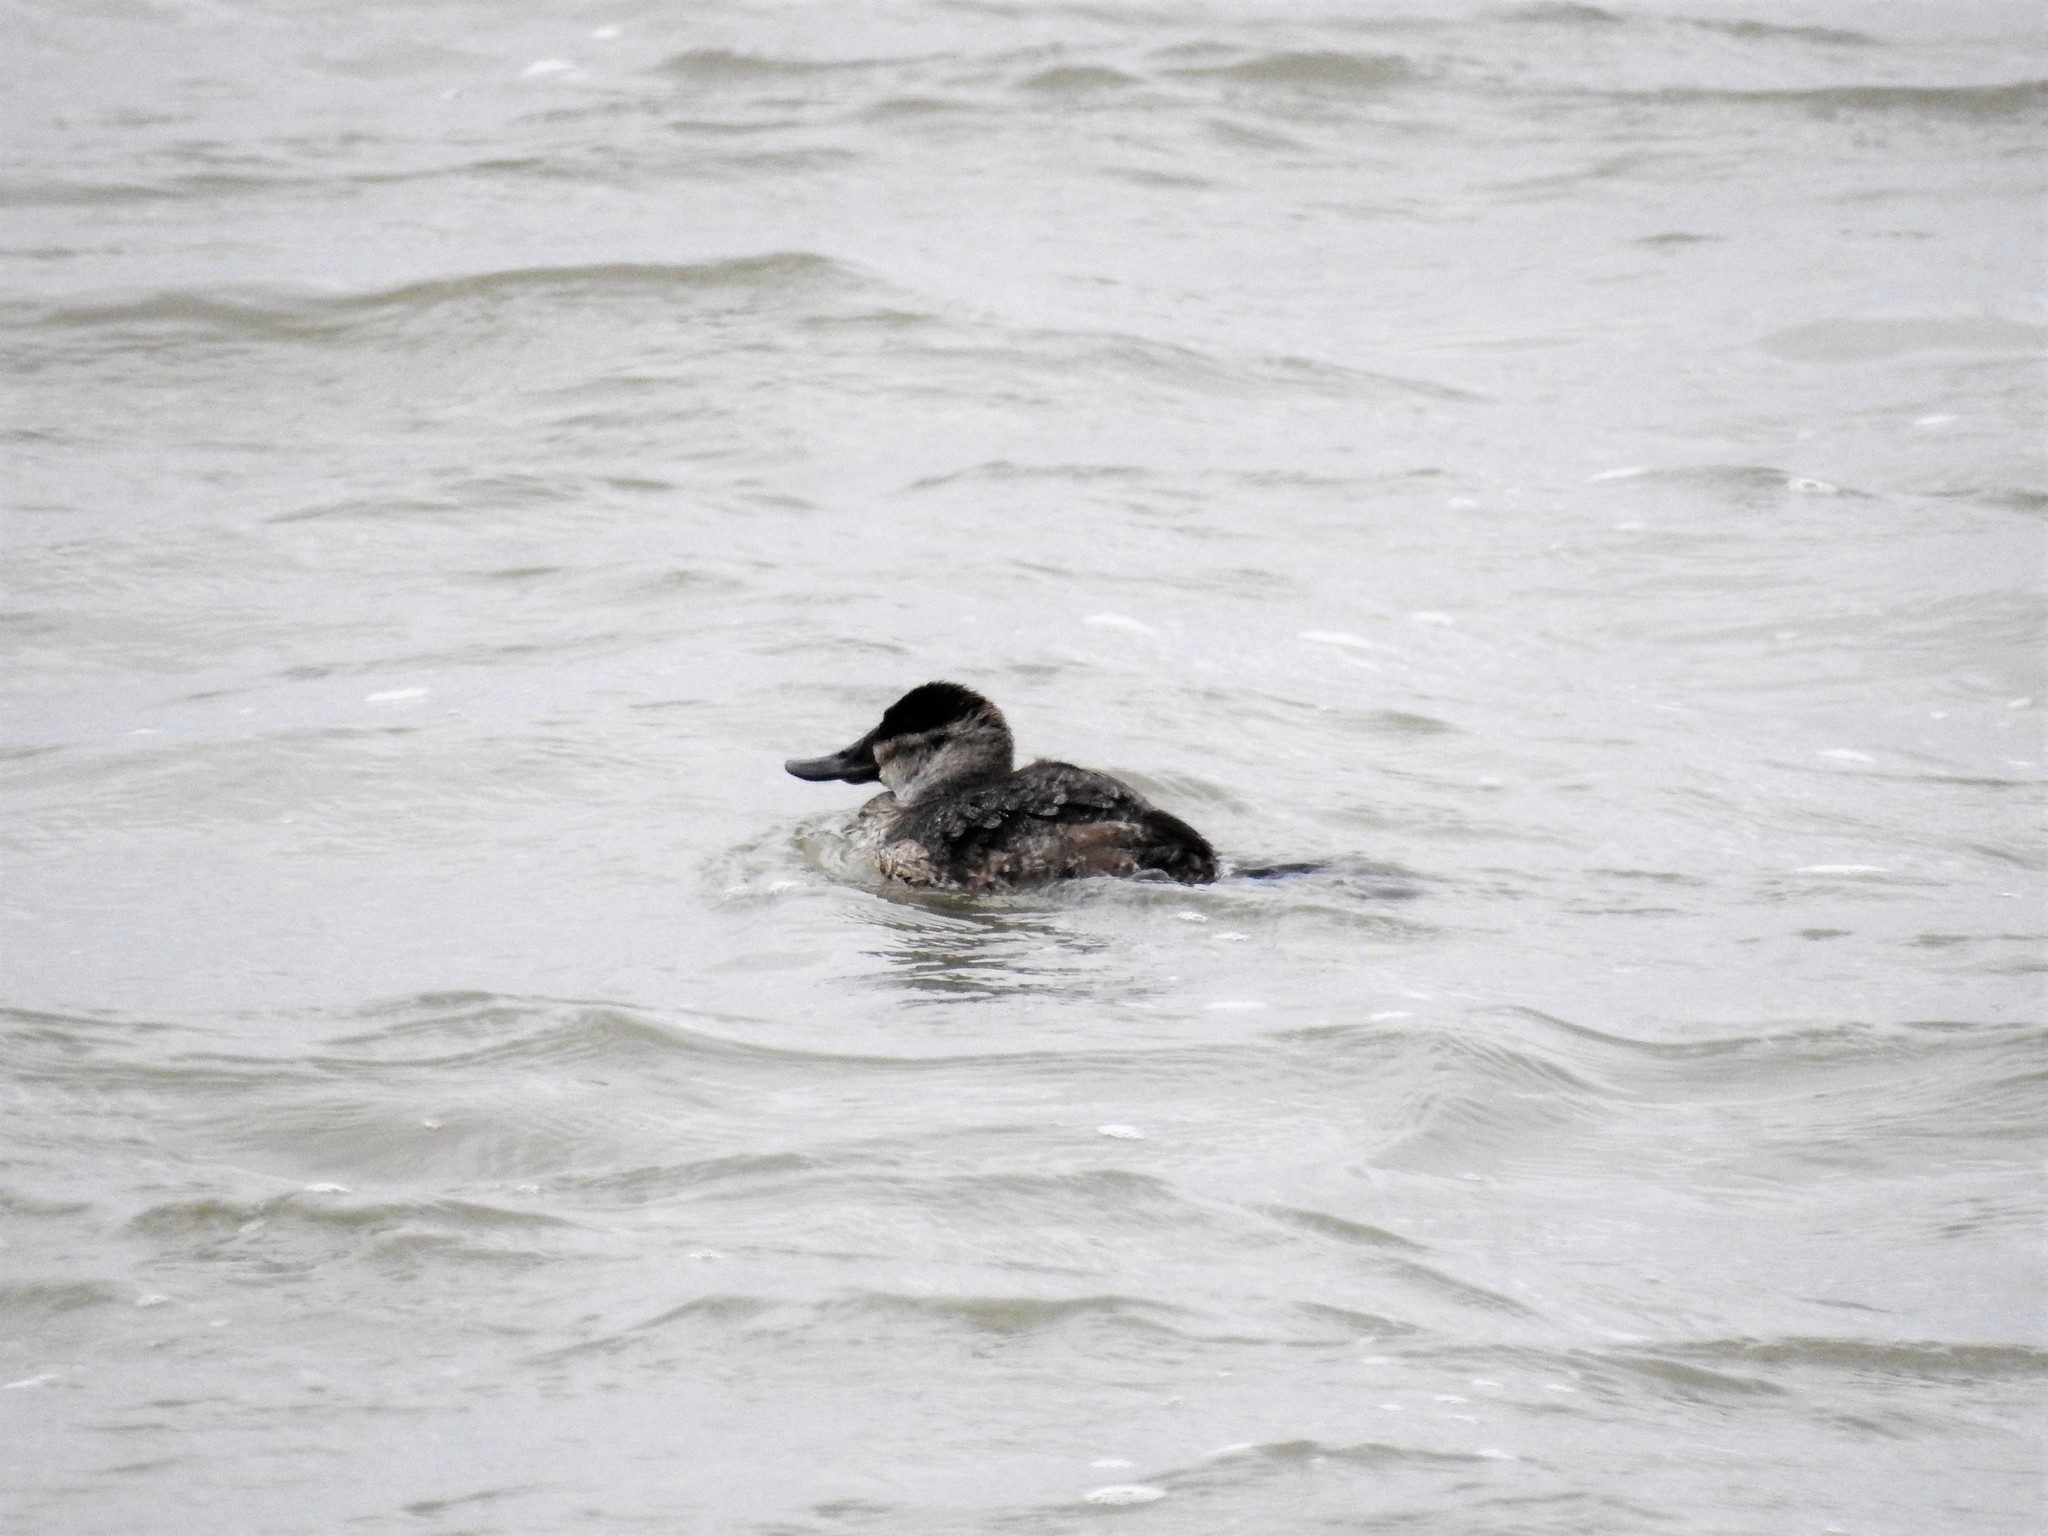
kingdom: Animalia
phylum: Chordata
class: Aves
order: Anseriformes
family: Anatidae
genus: Oxyura
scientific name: Oxyura jamaicensis
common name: Ruddy duck
